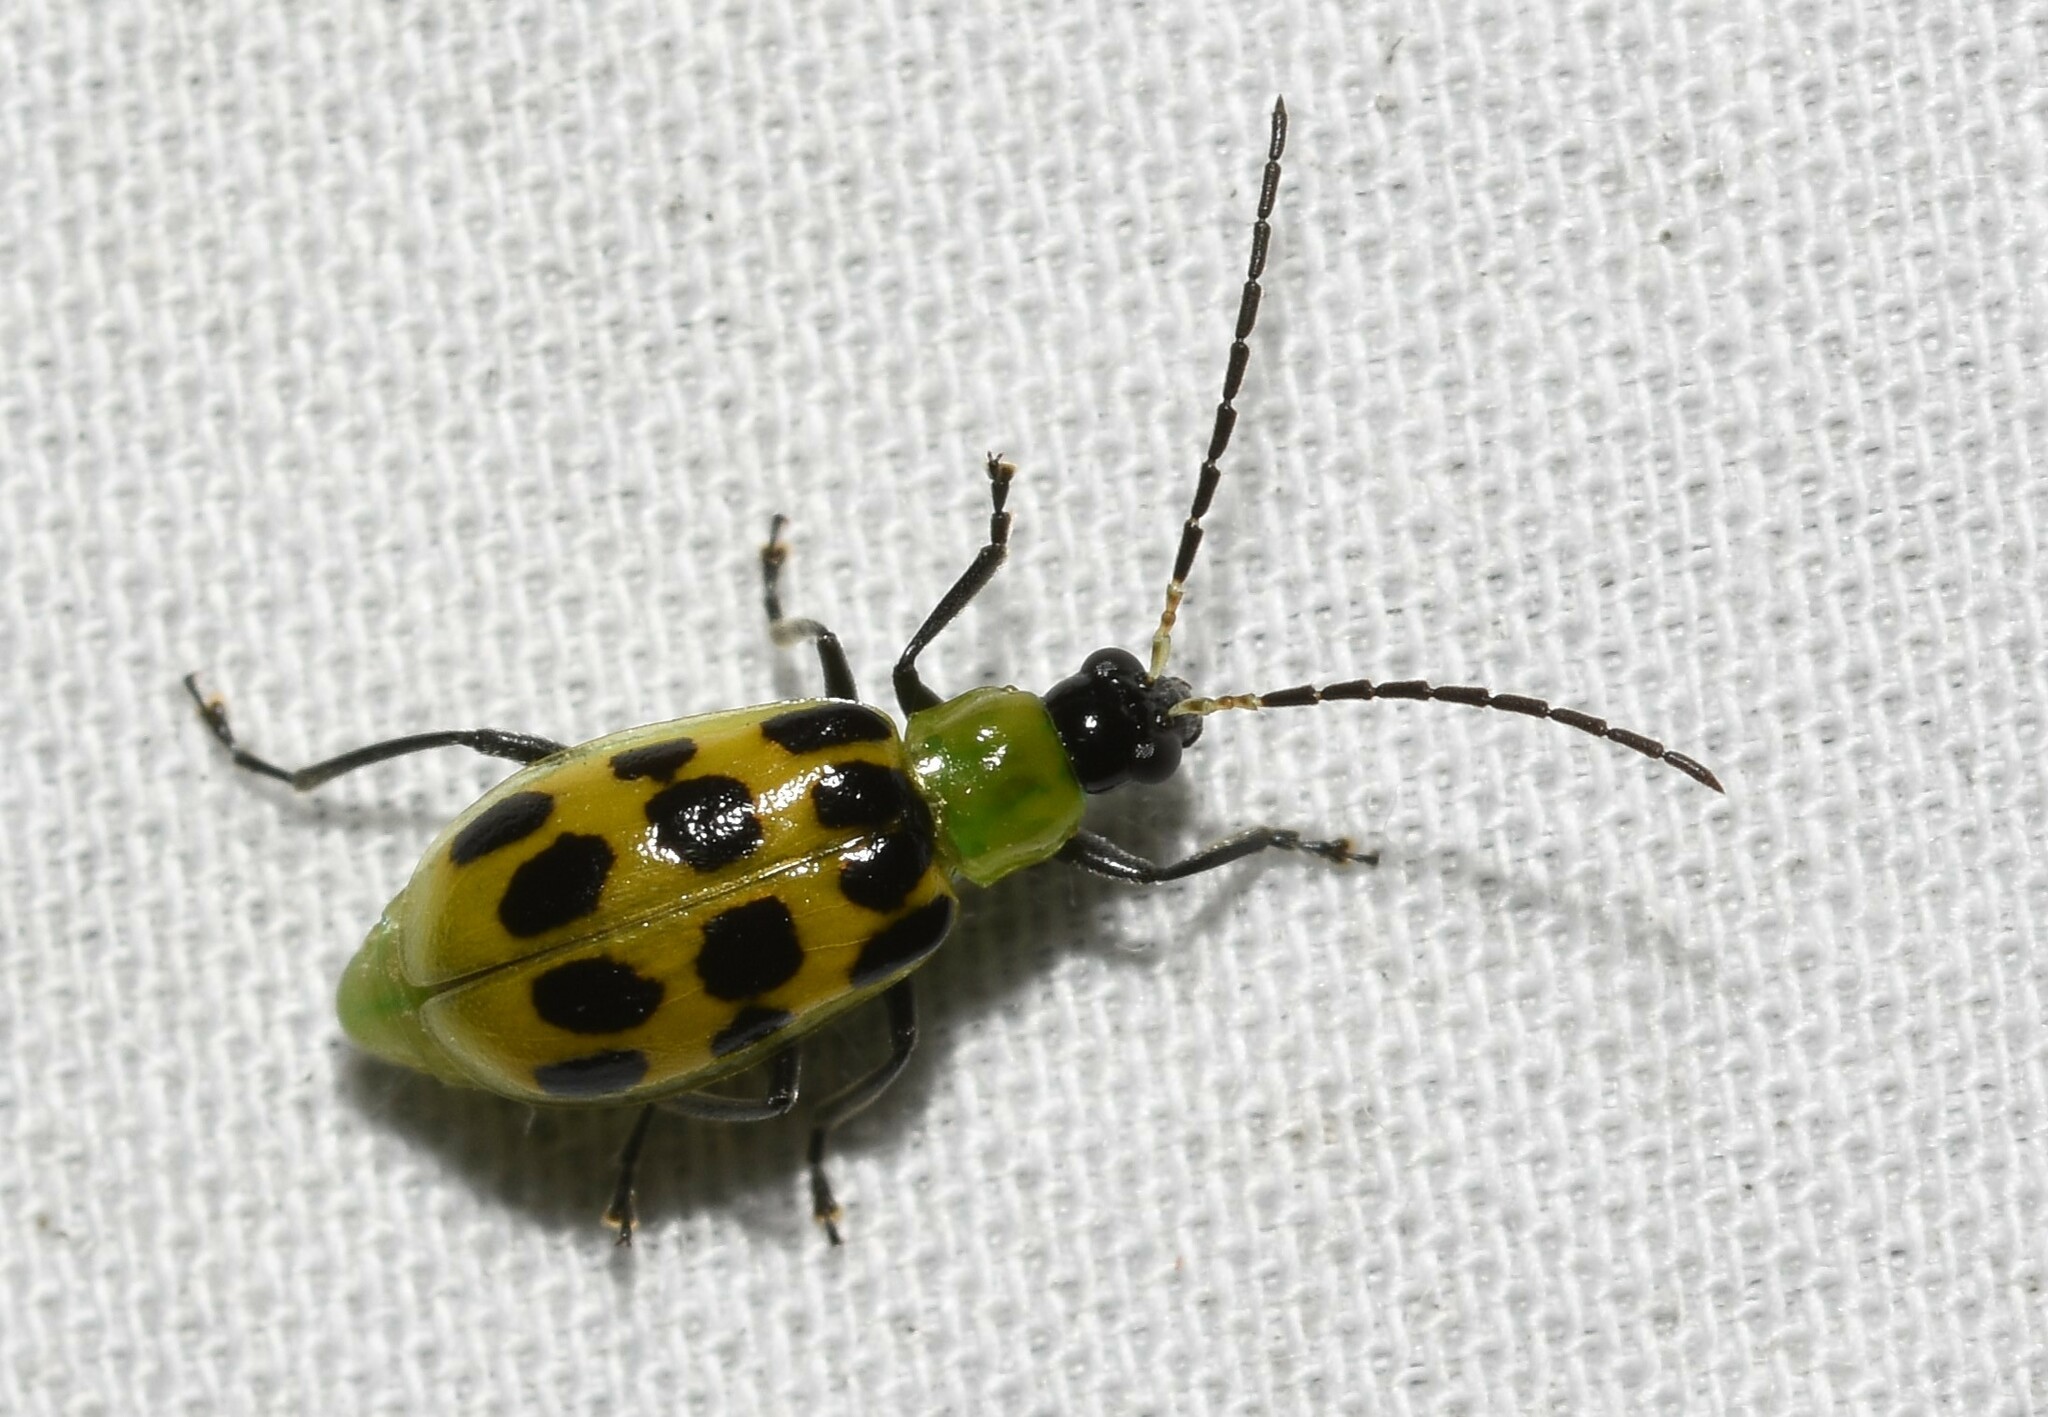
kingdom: Animalia
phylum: Arthropoda
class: Insecta
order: Coleoptera
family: Chrysomelidae
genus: Diabrotica
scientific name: Diabrotica undecimpunctata
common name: Spotted cucumber beetle
